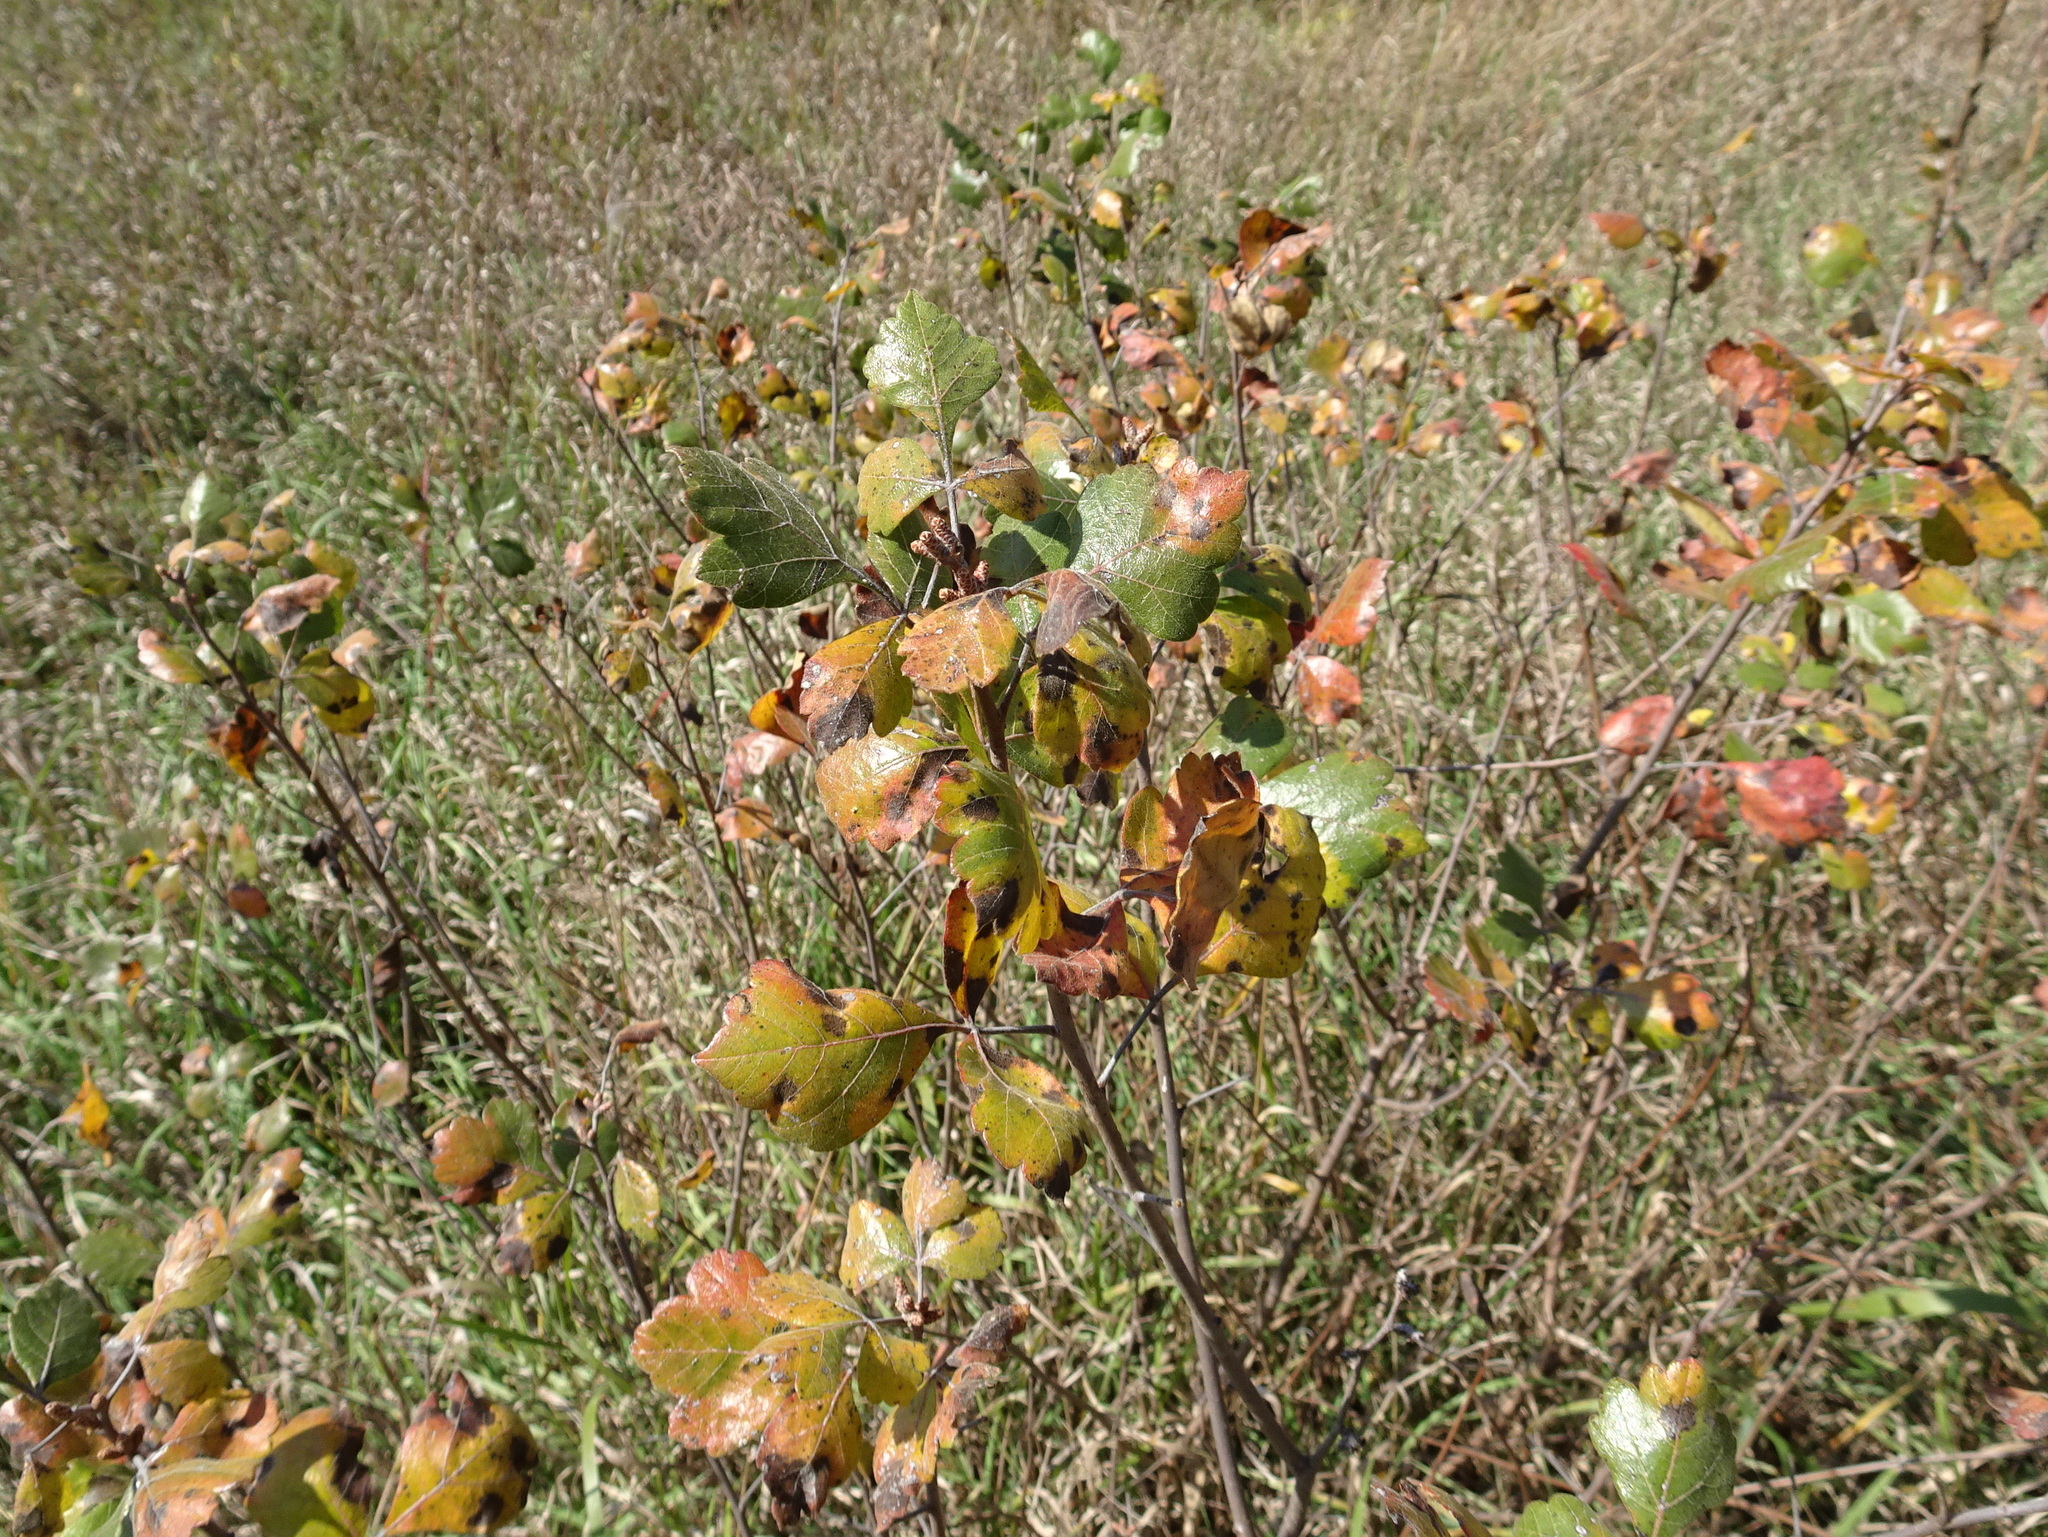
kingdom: Plantae
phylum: Tracheophyta
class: Magnoliopsida
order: Sapindales
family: Anacardiaceae
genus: Rhus
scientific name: Rhus aromatica
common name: Aromatic sumac
